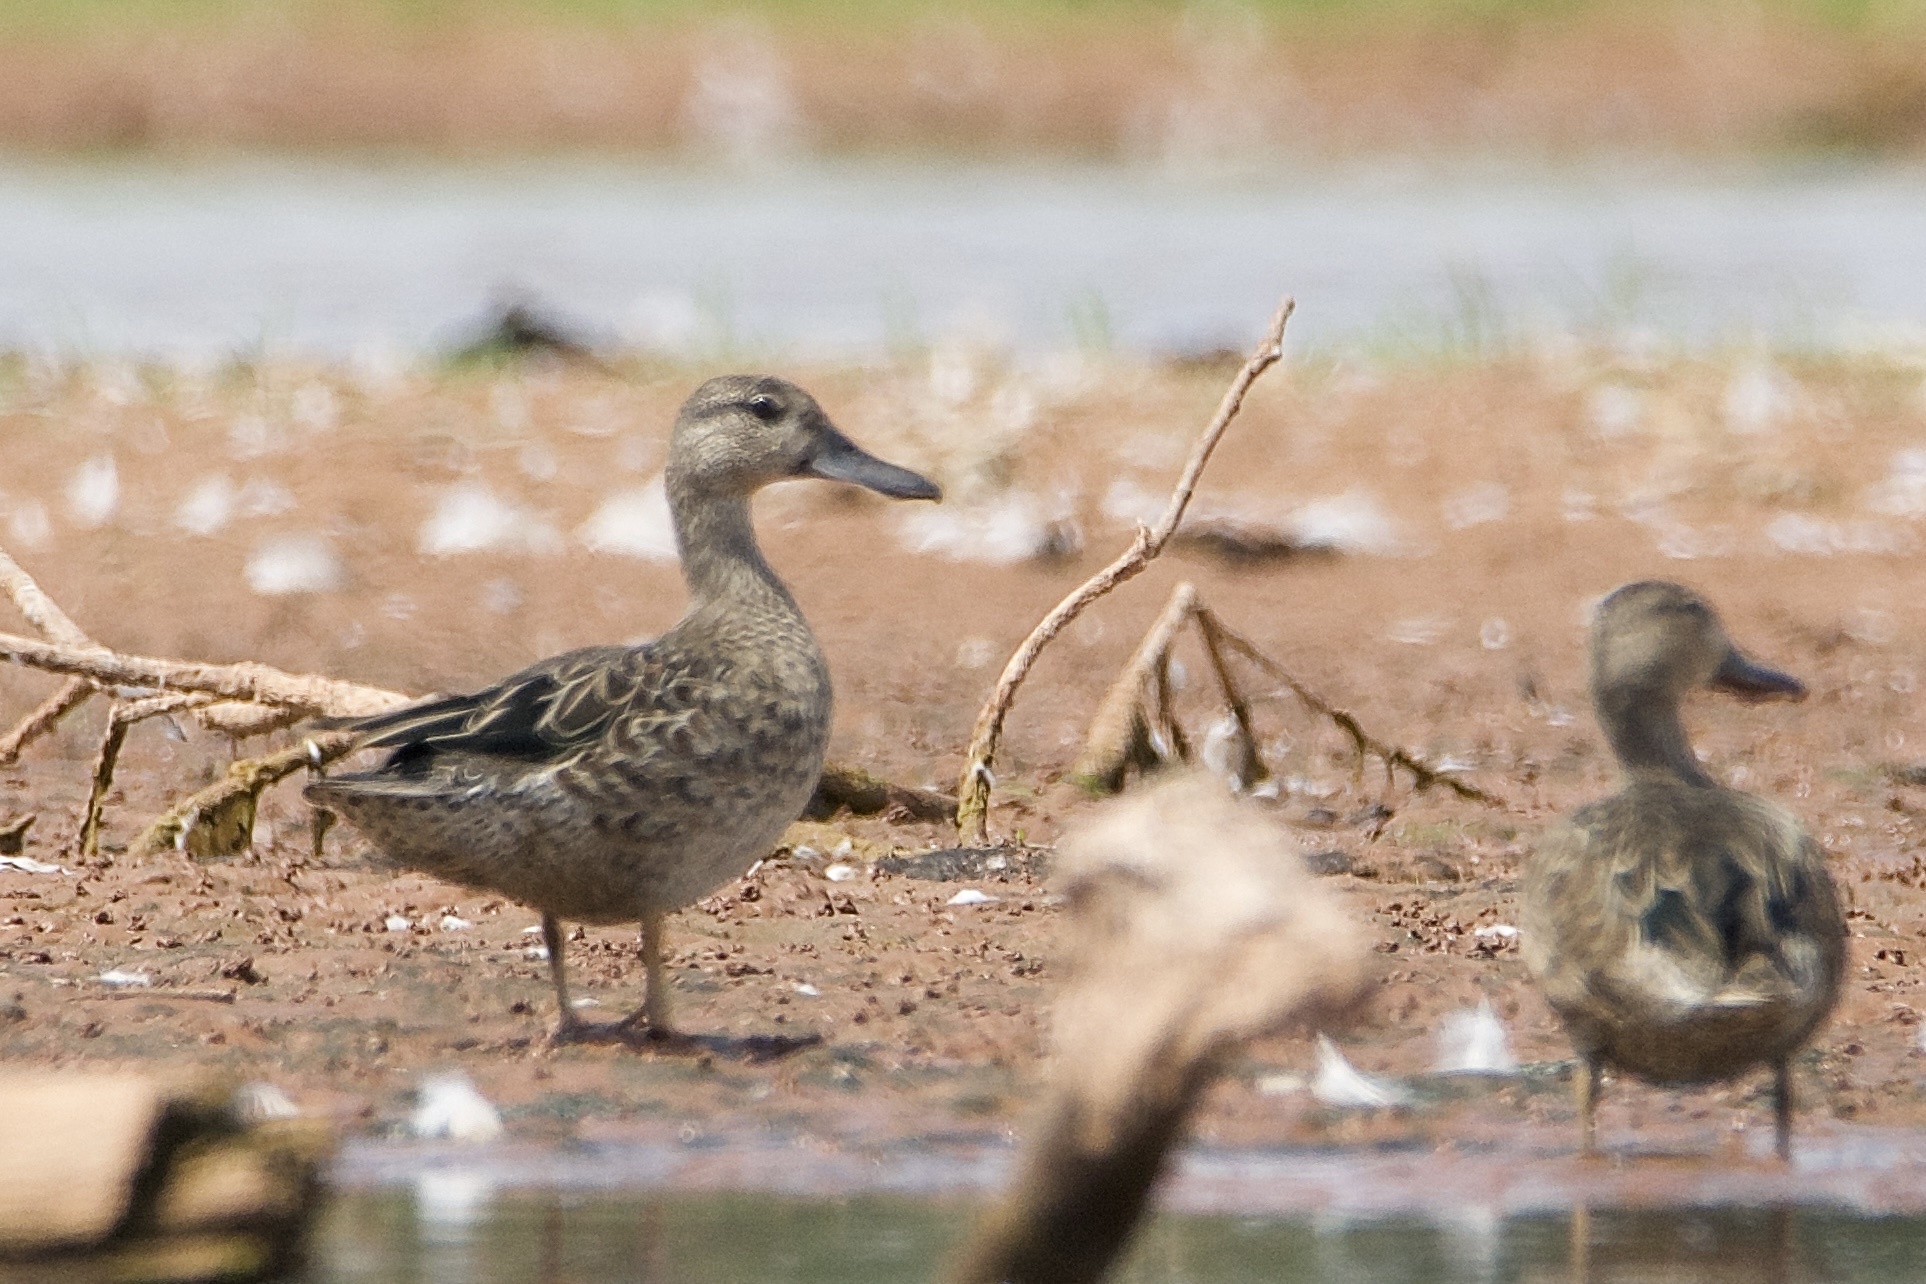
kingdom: Animalia
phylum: Chordata
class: Aves
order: Anseriformes
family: Anatidae
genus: Spatula
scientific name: Spatula discors
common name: Blue-winged teal
